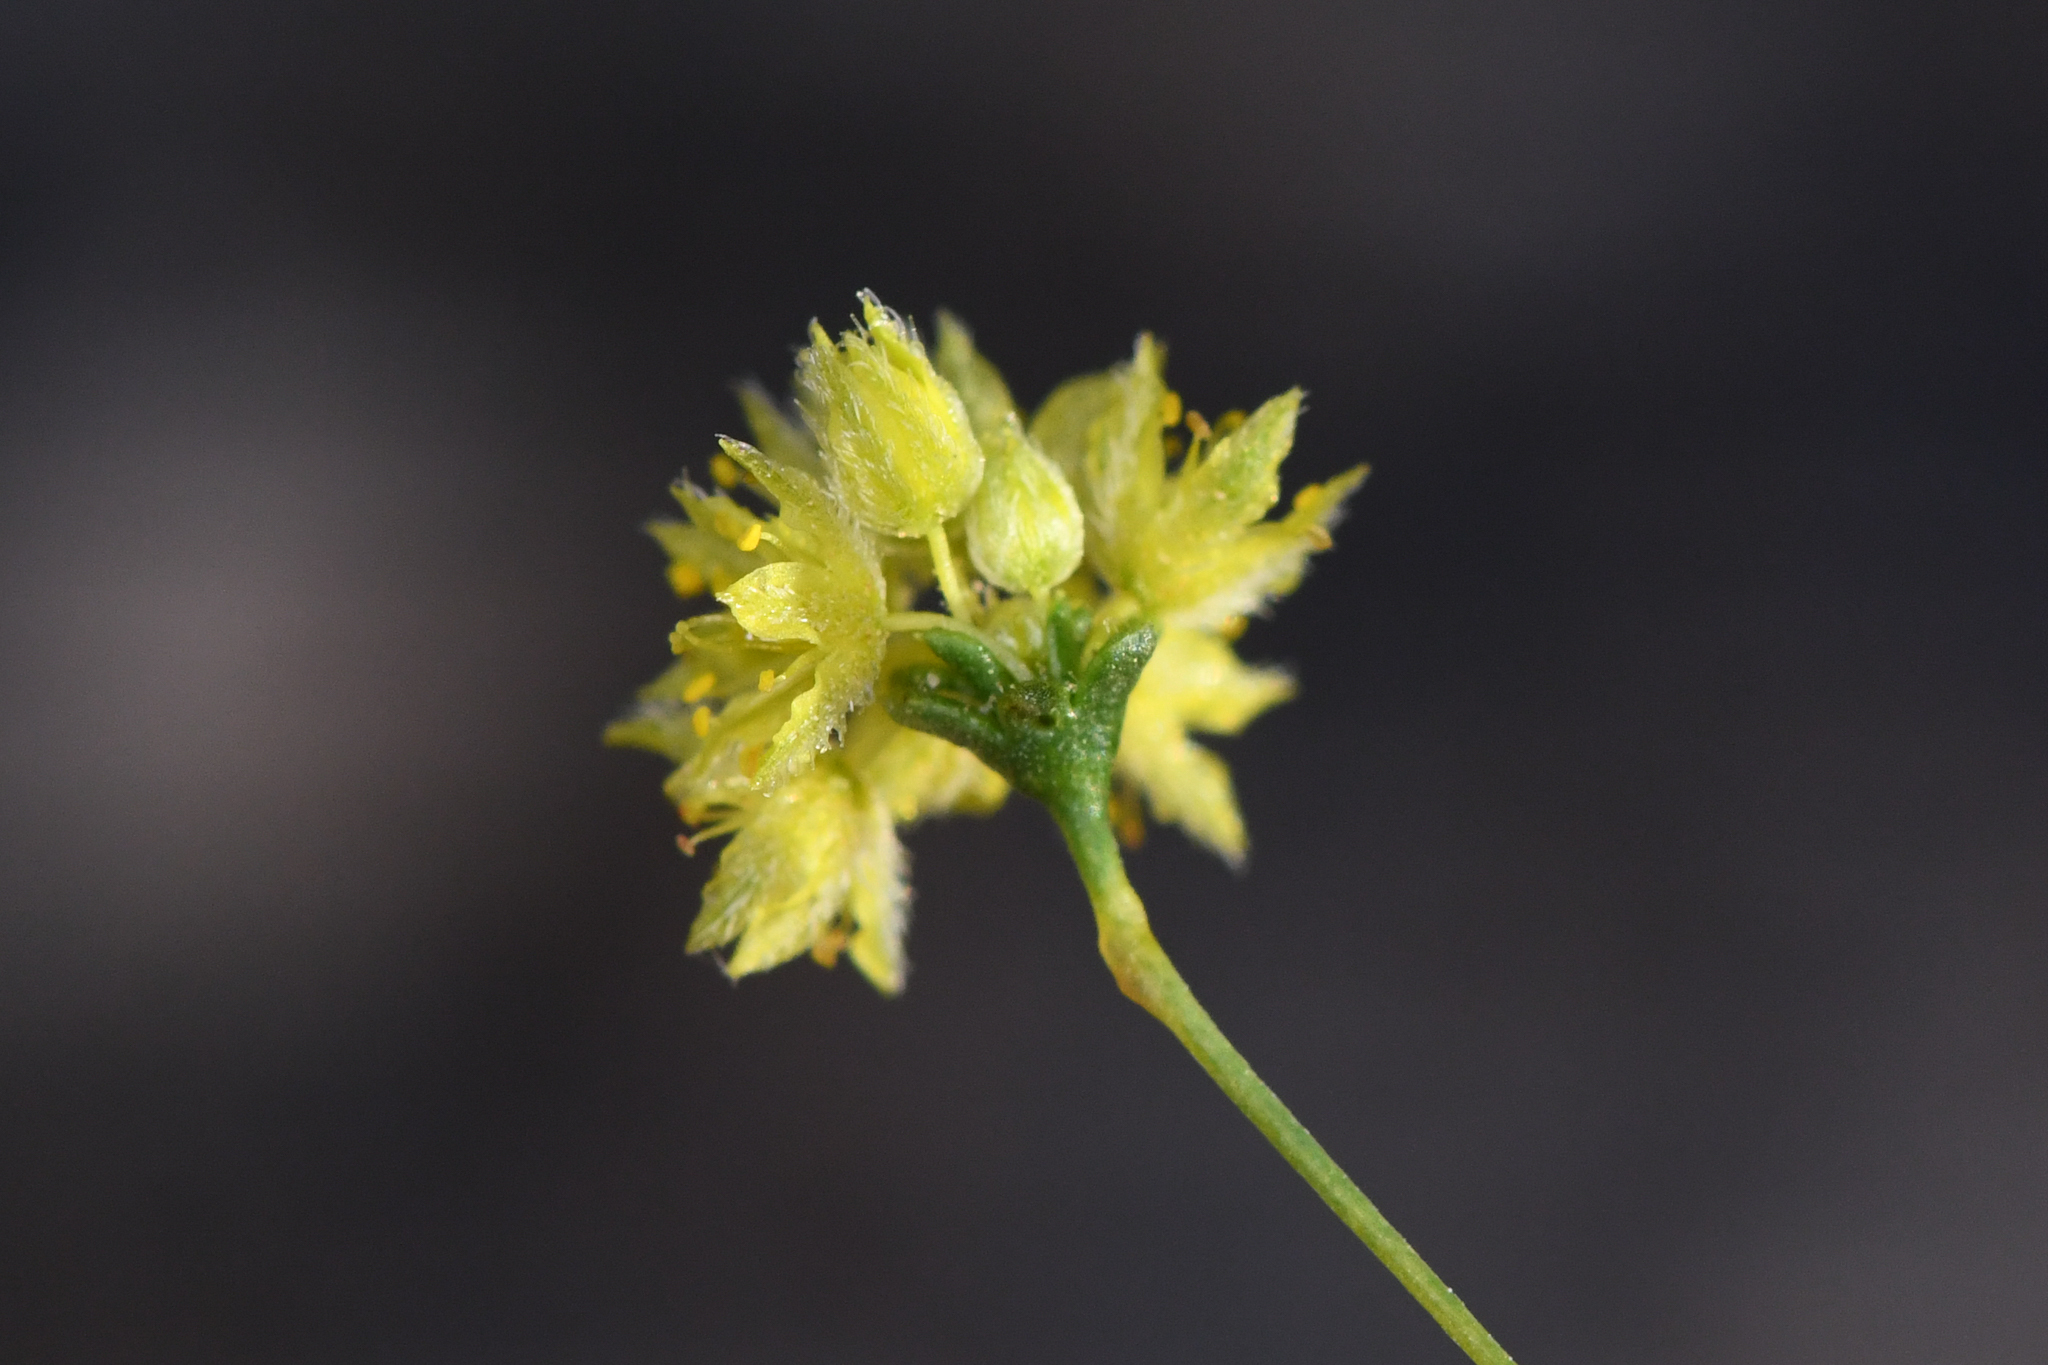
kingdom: Plantae
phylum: Tracheophyta
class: Magnoliopsida
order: Caryophyllales
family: Polygonaceae
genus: Eriogonum
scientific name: Eriogonum contiguum
